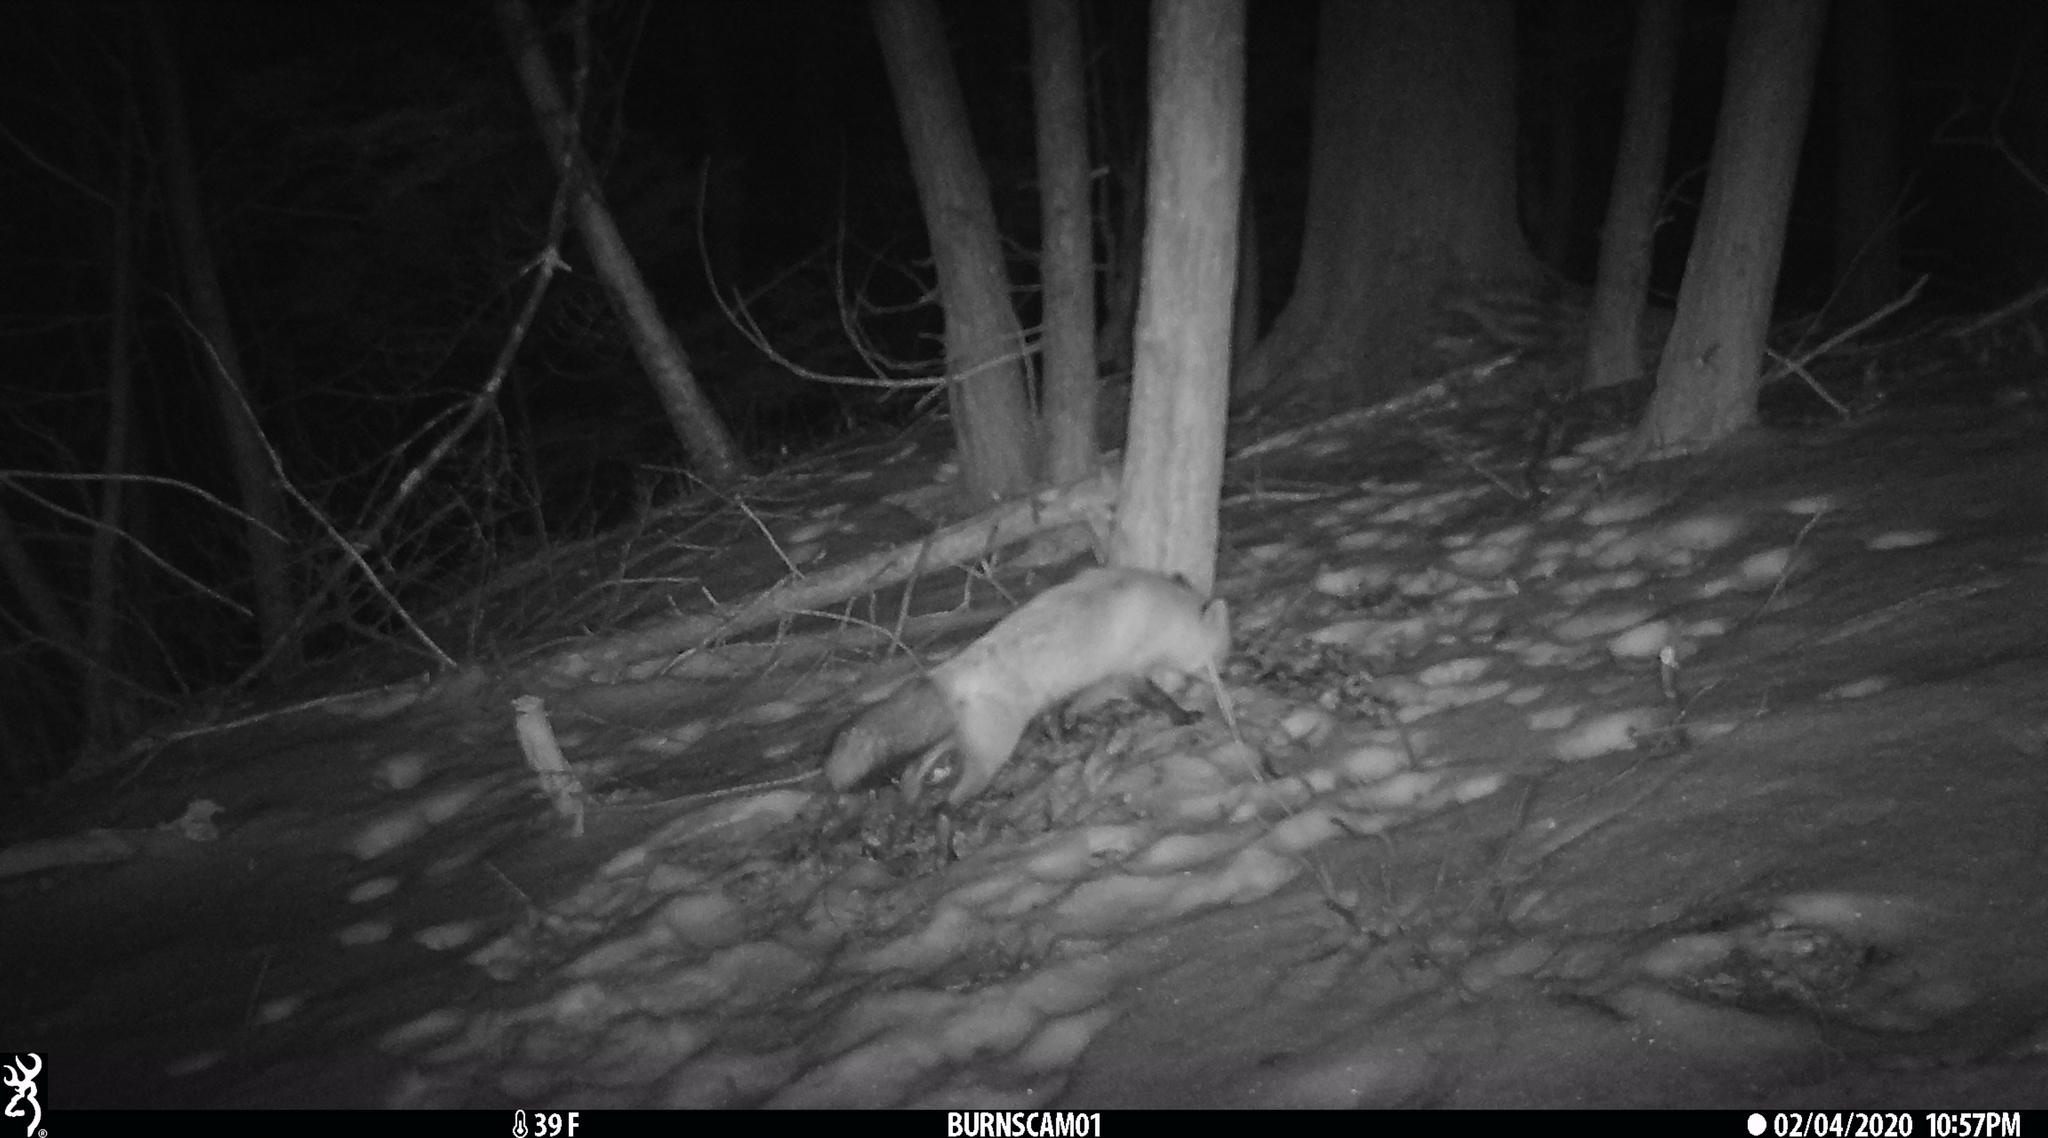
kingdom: Animalia
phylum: Chordata
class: Mammalia
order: Carnivora
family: Canidae
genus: Vulpes
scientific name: Vulpes vulpes
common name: Red fox
